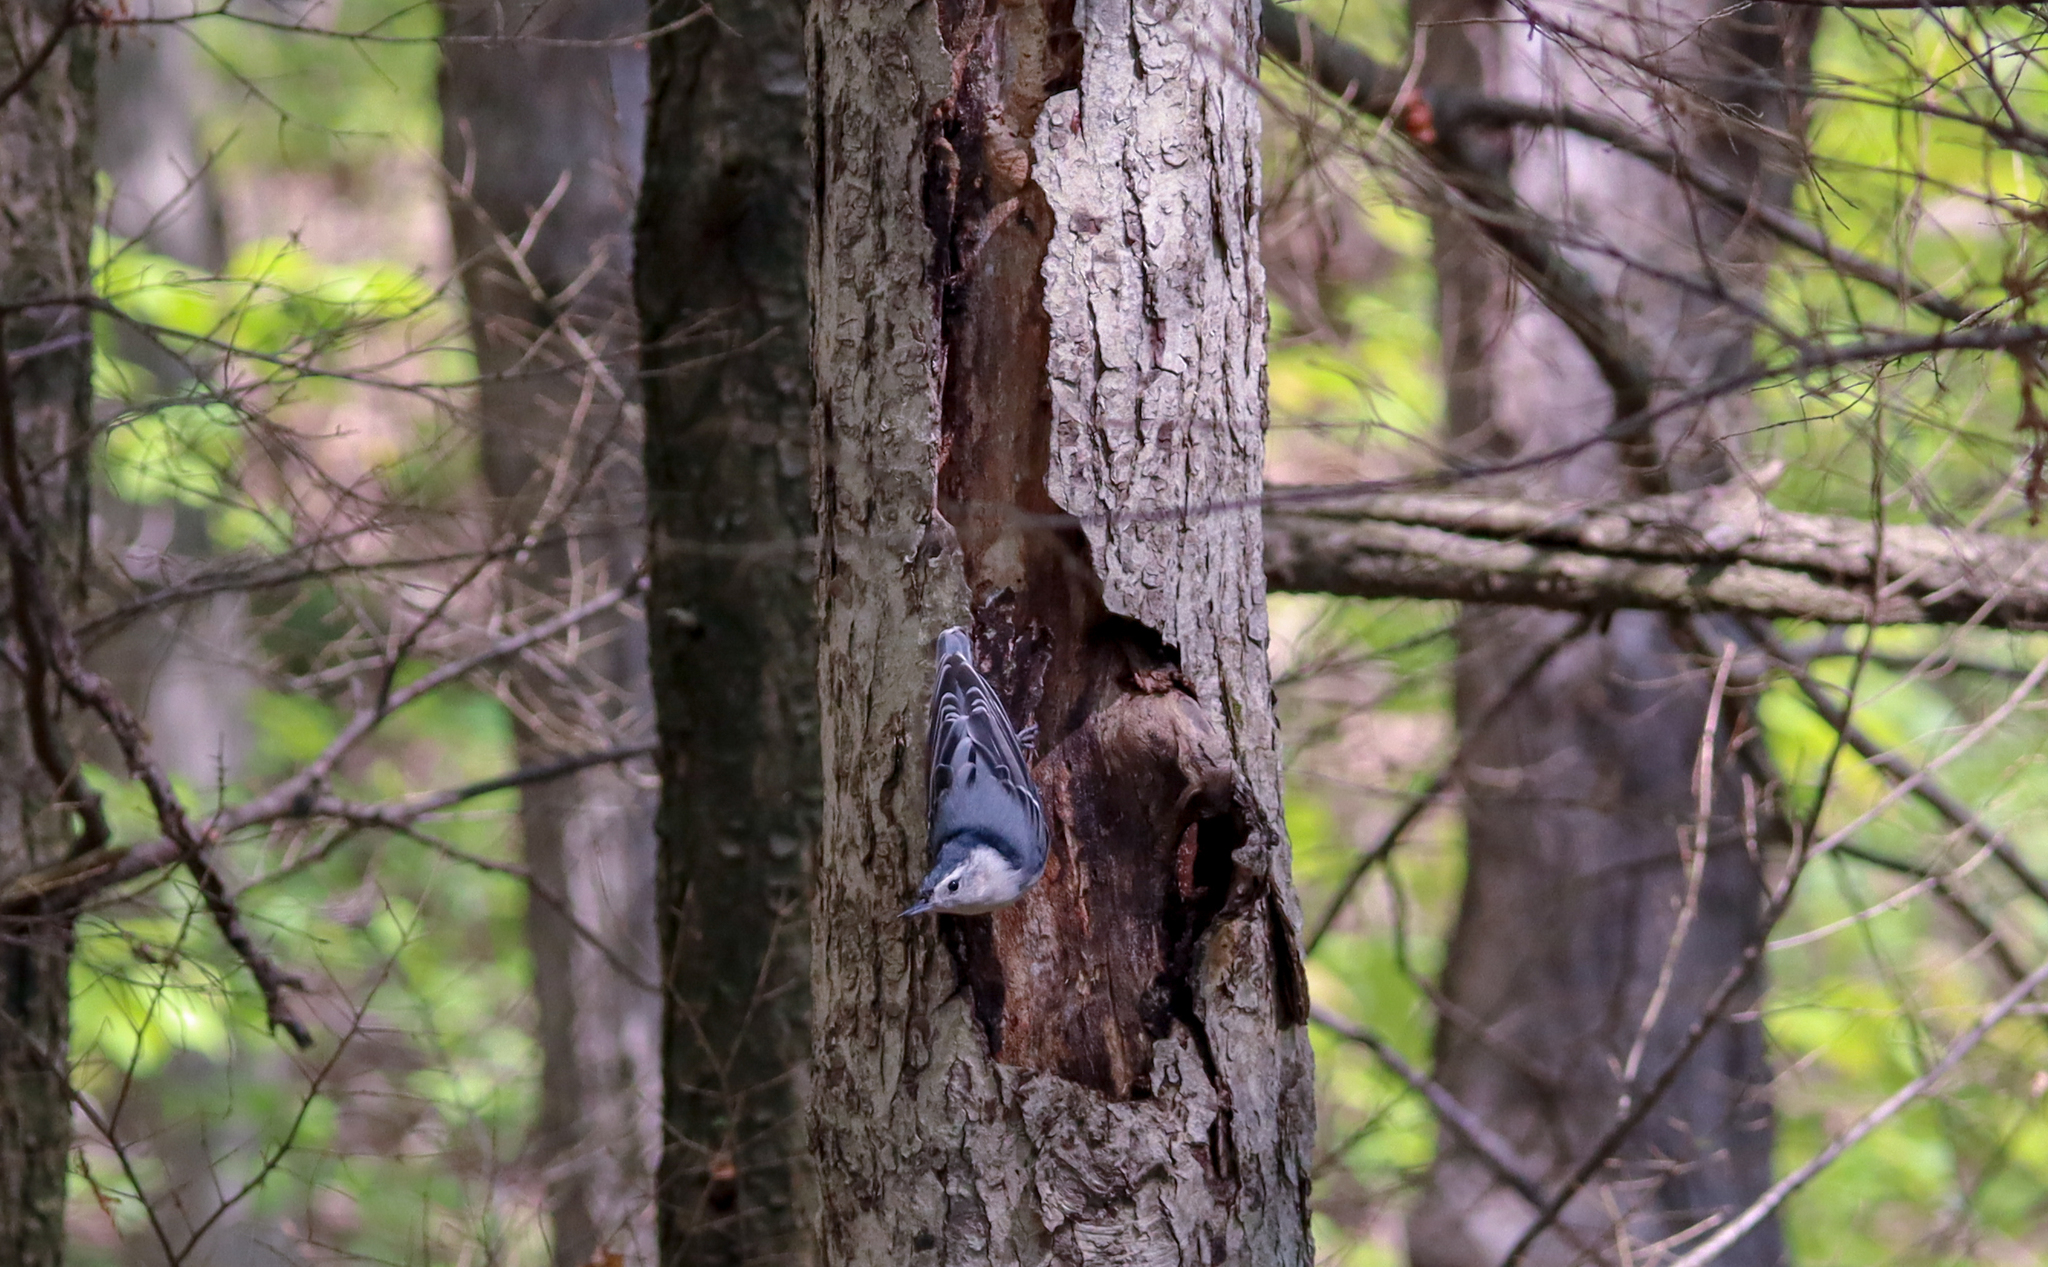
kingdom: Animalia
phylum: Chordata
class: Aves
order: Passeriformes
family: Sittidae
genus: Sitta
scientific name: Sitta carolinensis
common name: White-breasted nuthatch
